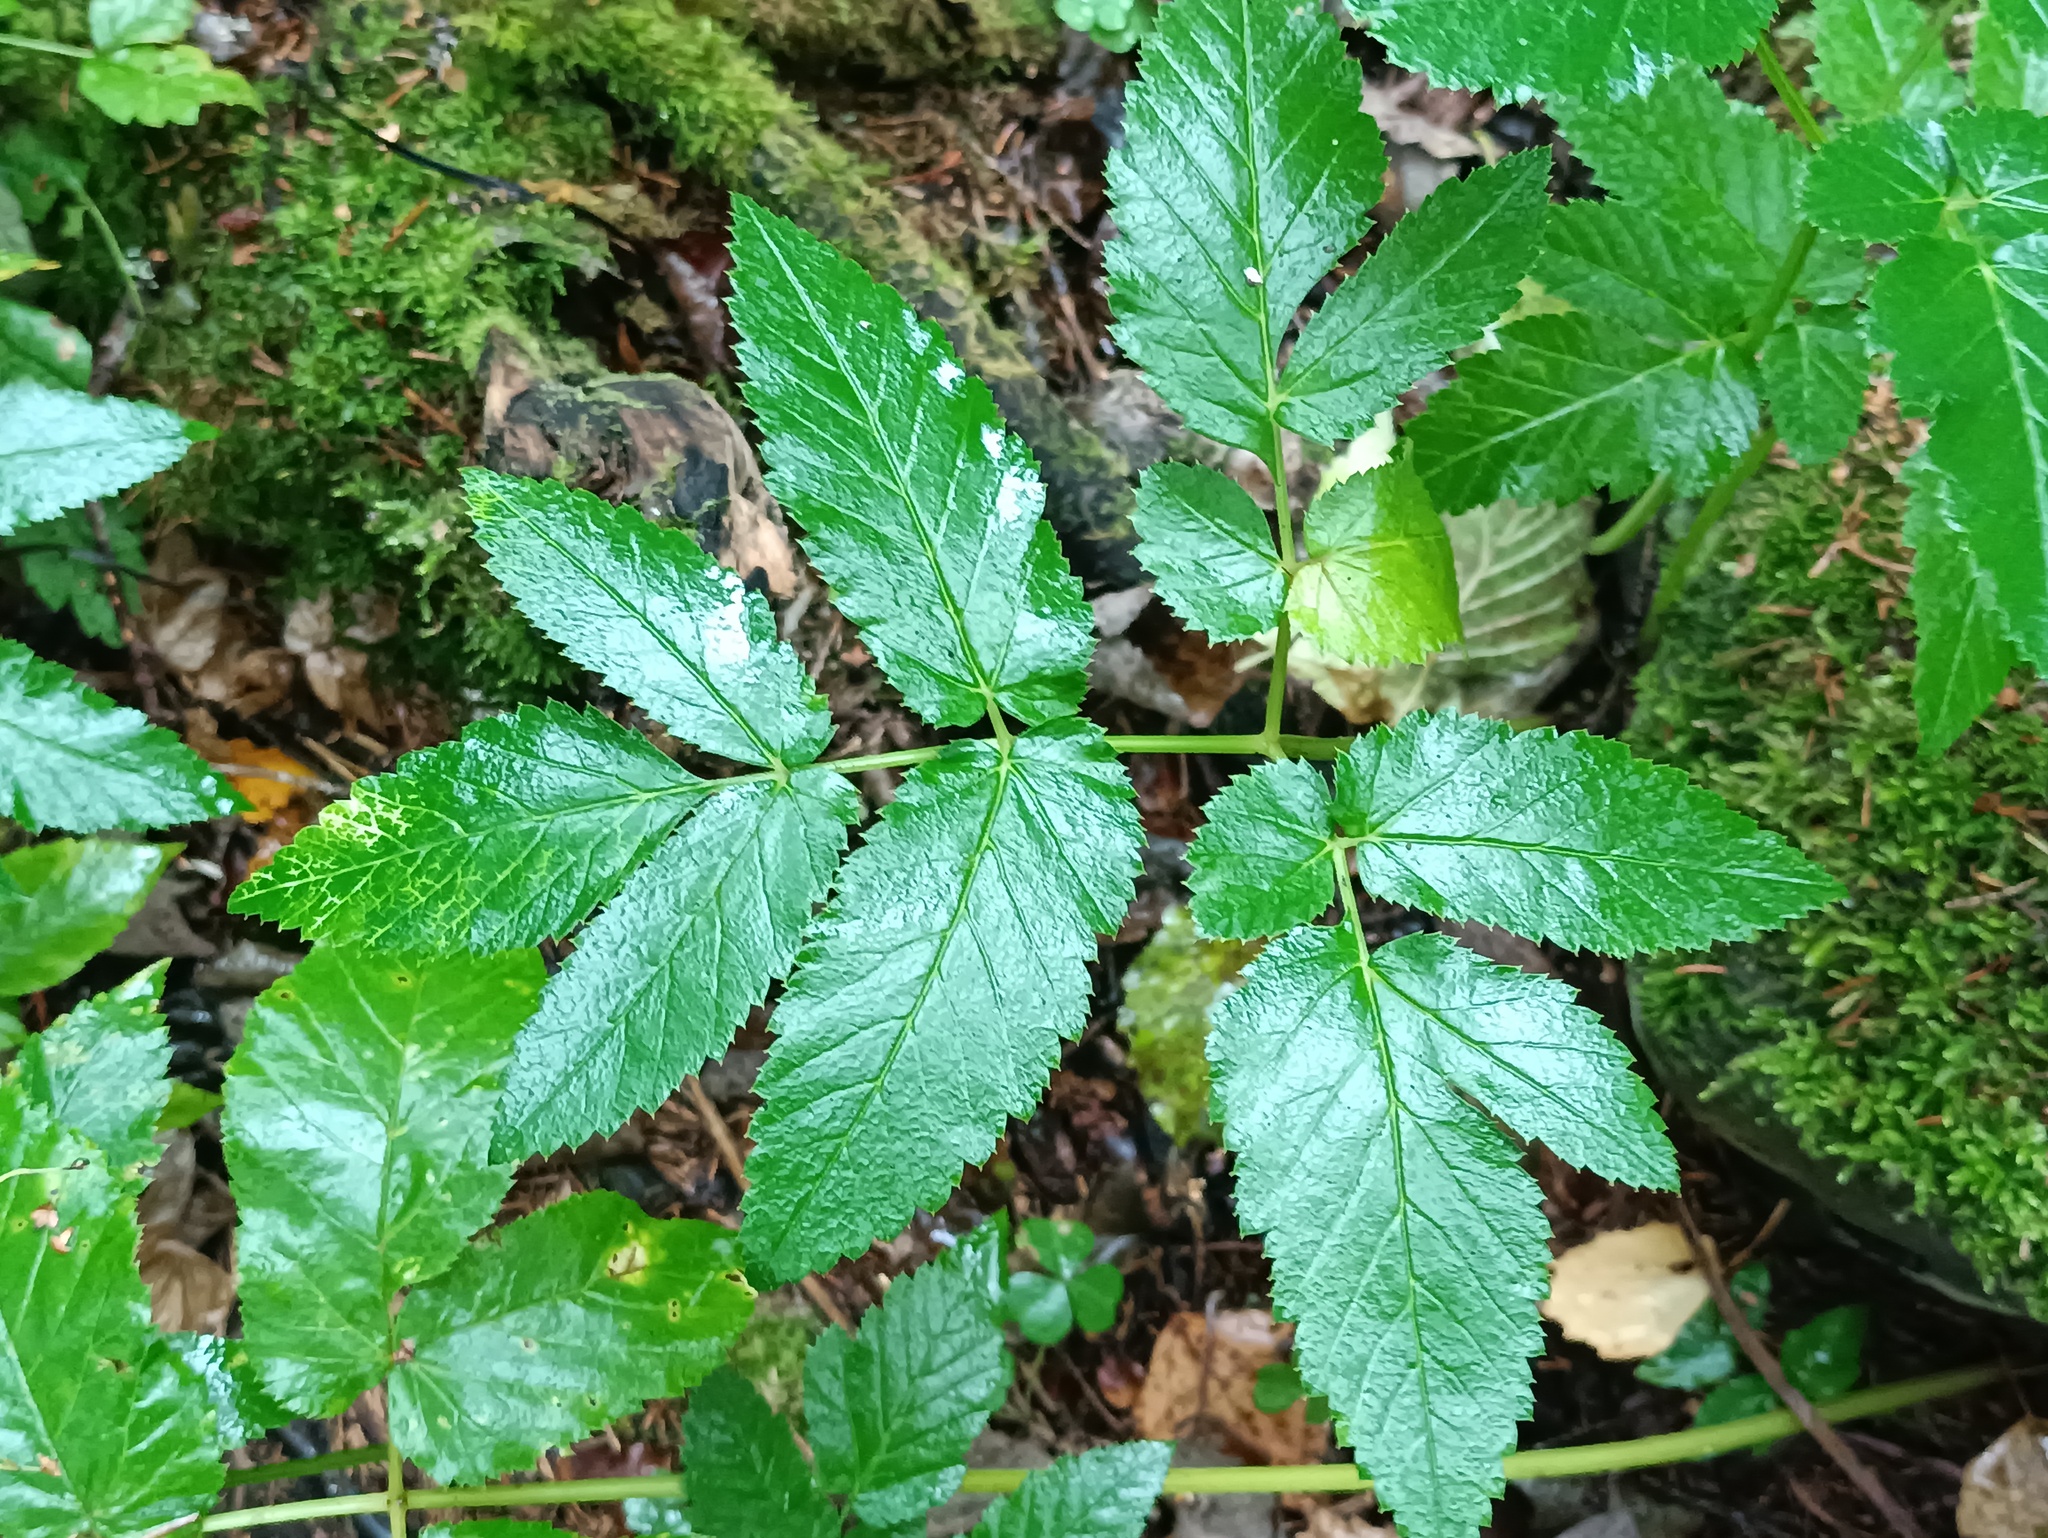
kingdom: Plantae
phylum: Tracheophyta
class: Magnoliopsida
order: Apiales
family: Apiaceae
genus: Aegopodium
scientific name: Aegopodium podagraria
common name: Ground-elder
